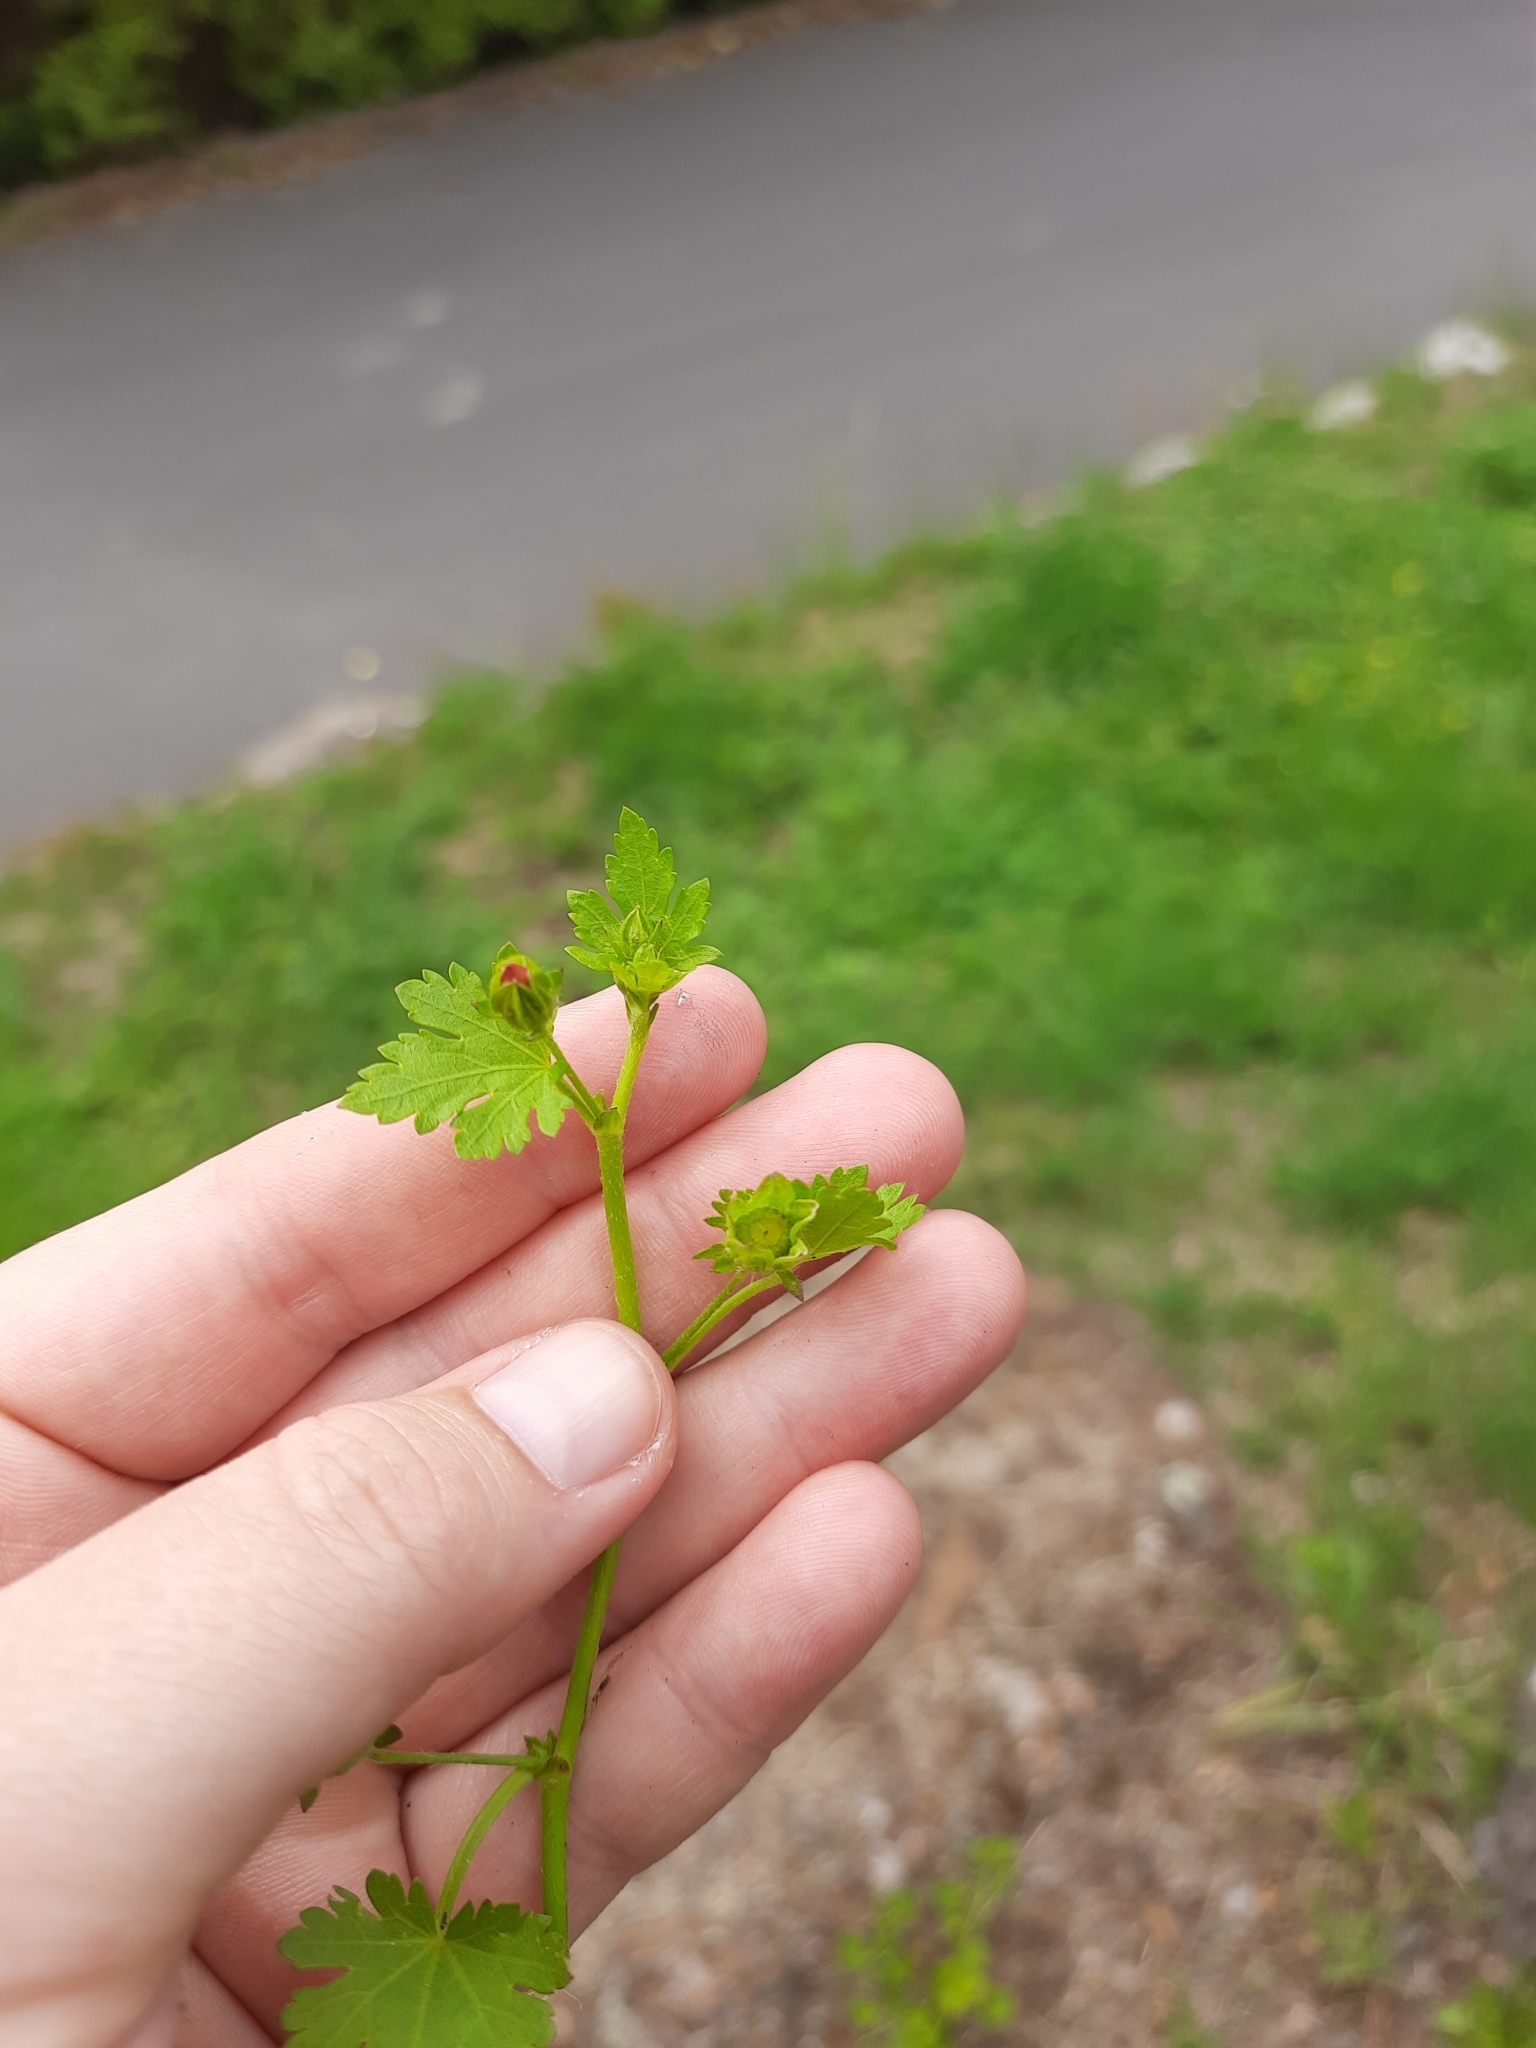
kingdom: Plantae
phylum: Tracheophyta
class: Magnoliopsida
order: Malvales
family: Malvaceae
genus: Modiola
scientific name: Modiola caroliniana
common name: Carolina bristlemallow
